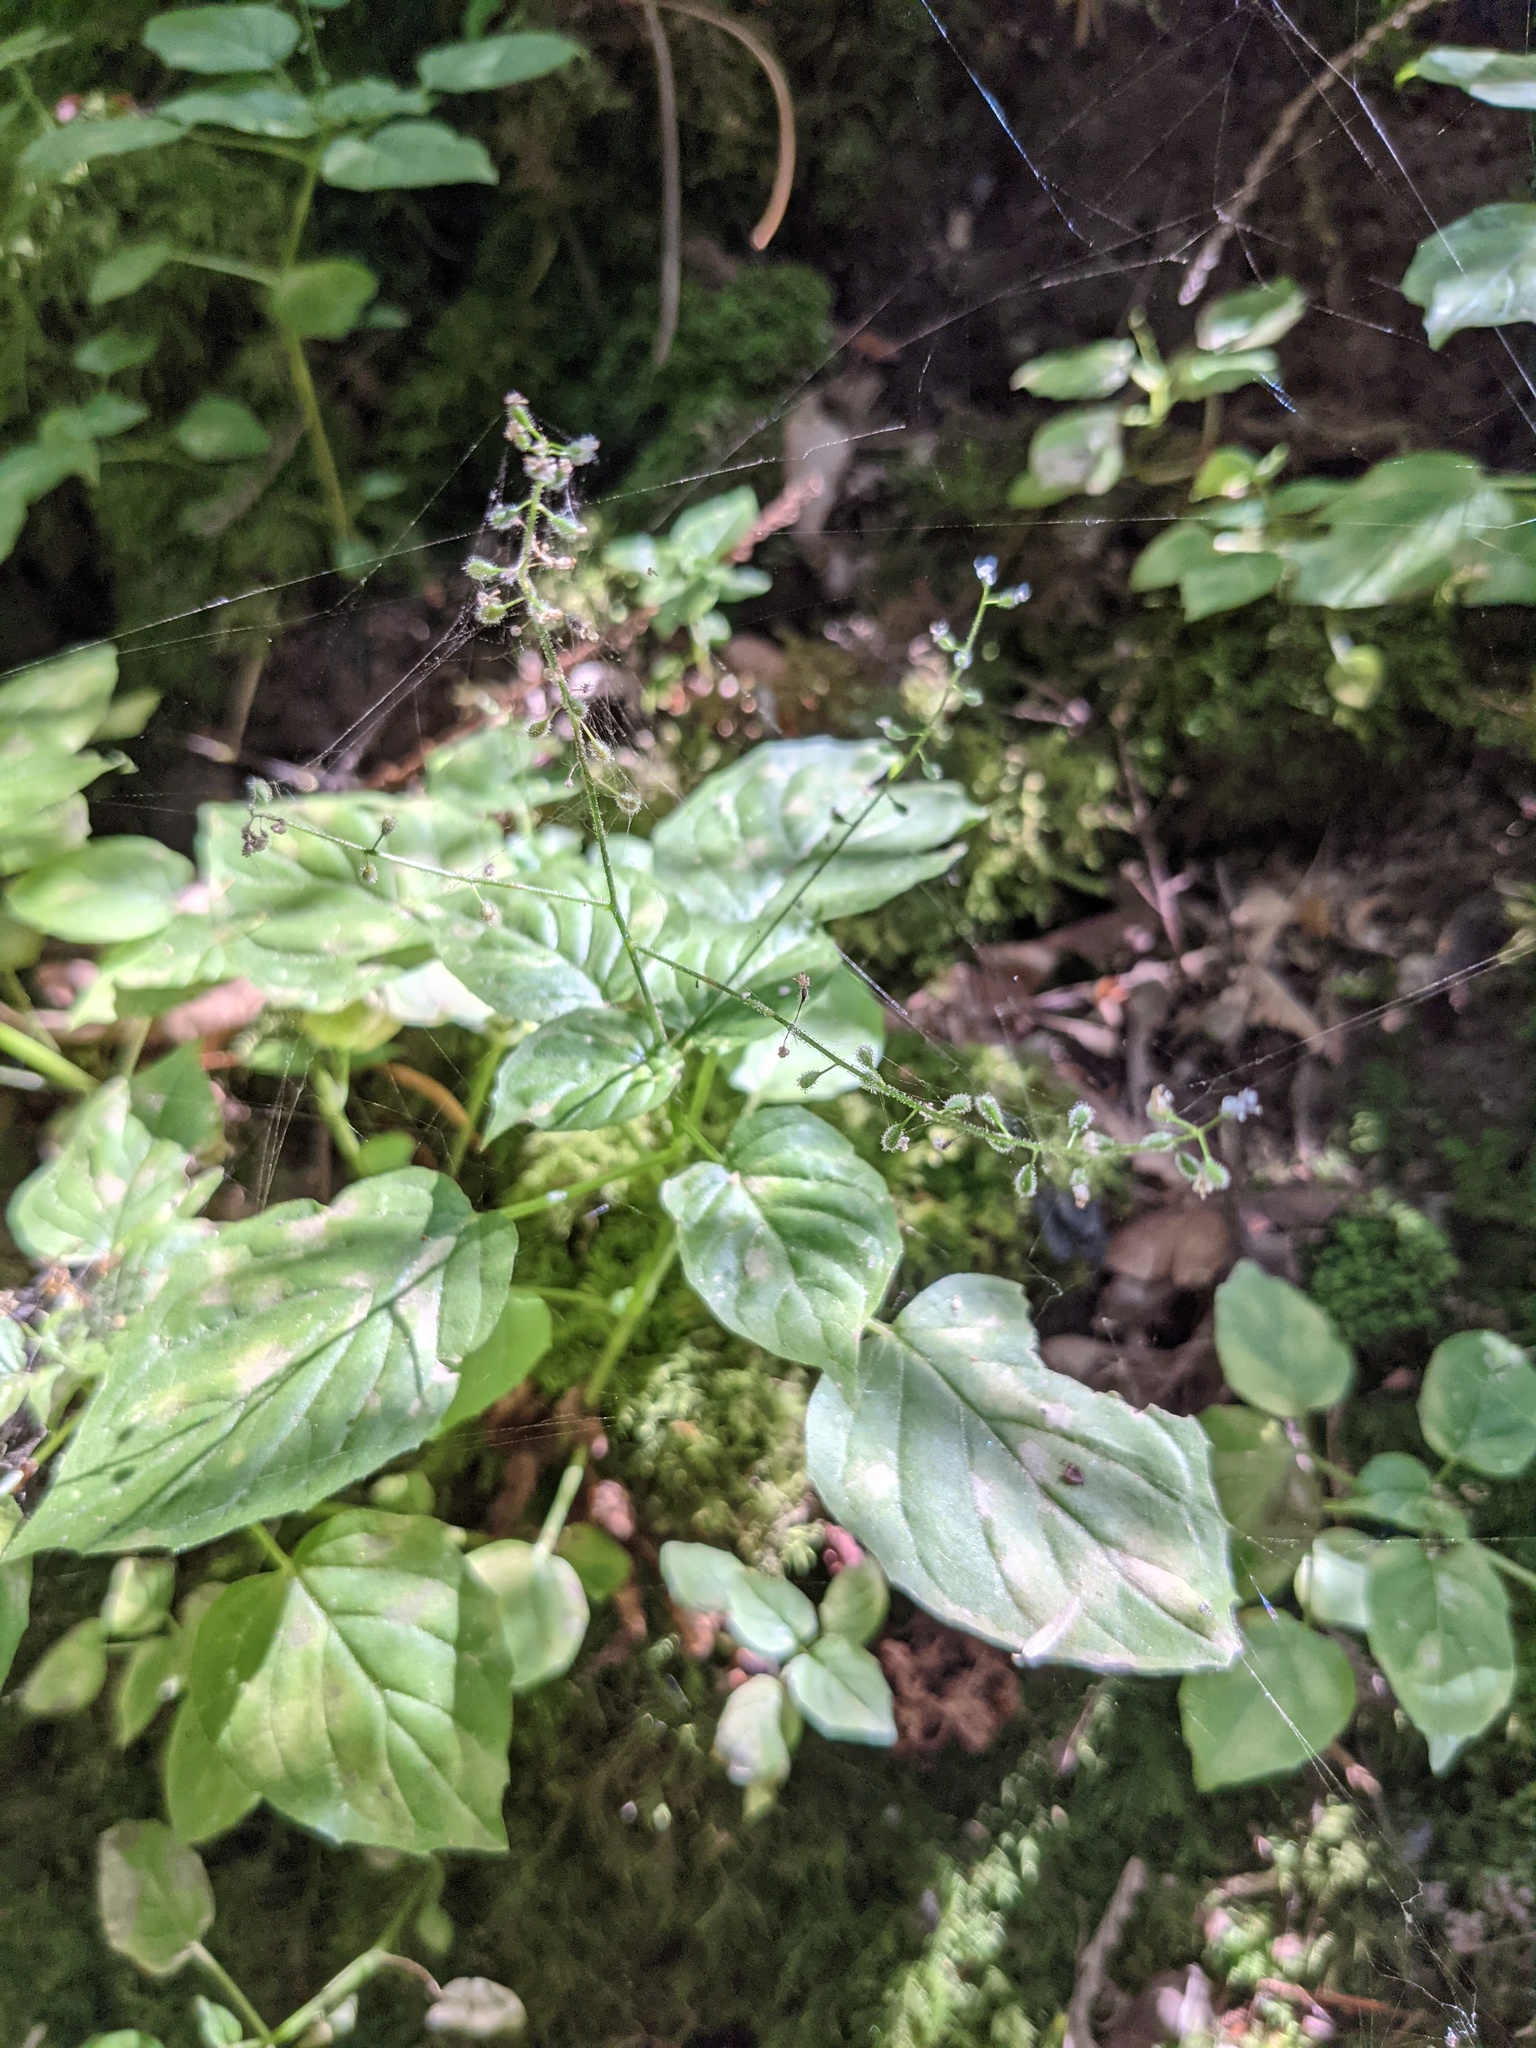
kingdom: Plantae
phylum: Tracheophyta
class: Magnoliopsida
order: Myrtales
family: Onagraceae
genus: Circaea
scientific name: Circaea alpina
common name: Alpine enchanter's-nightshade
